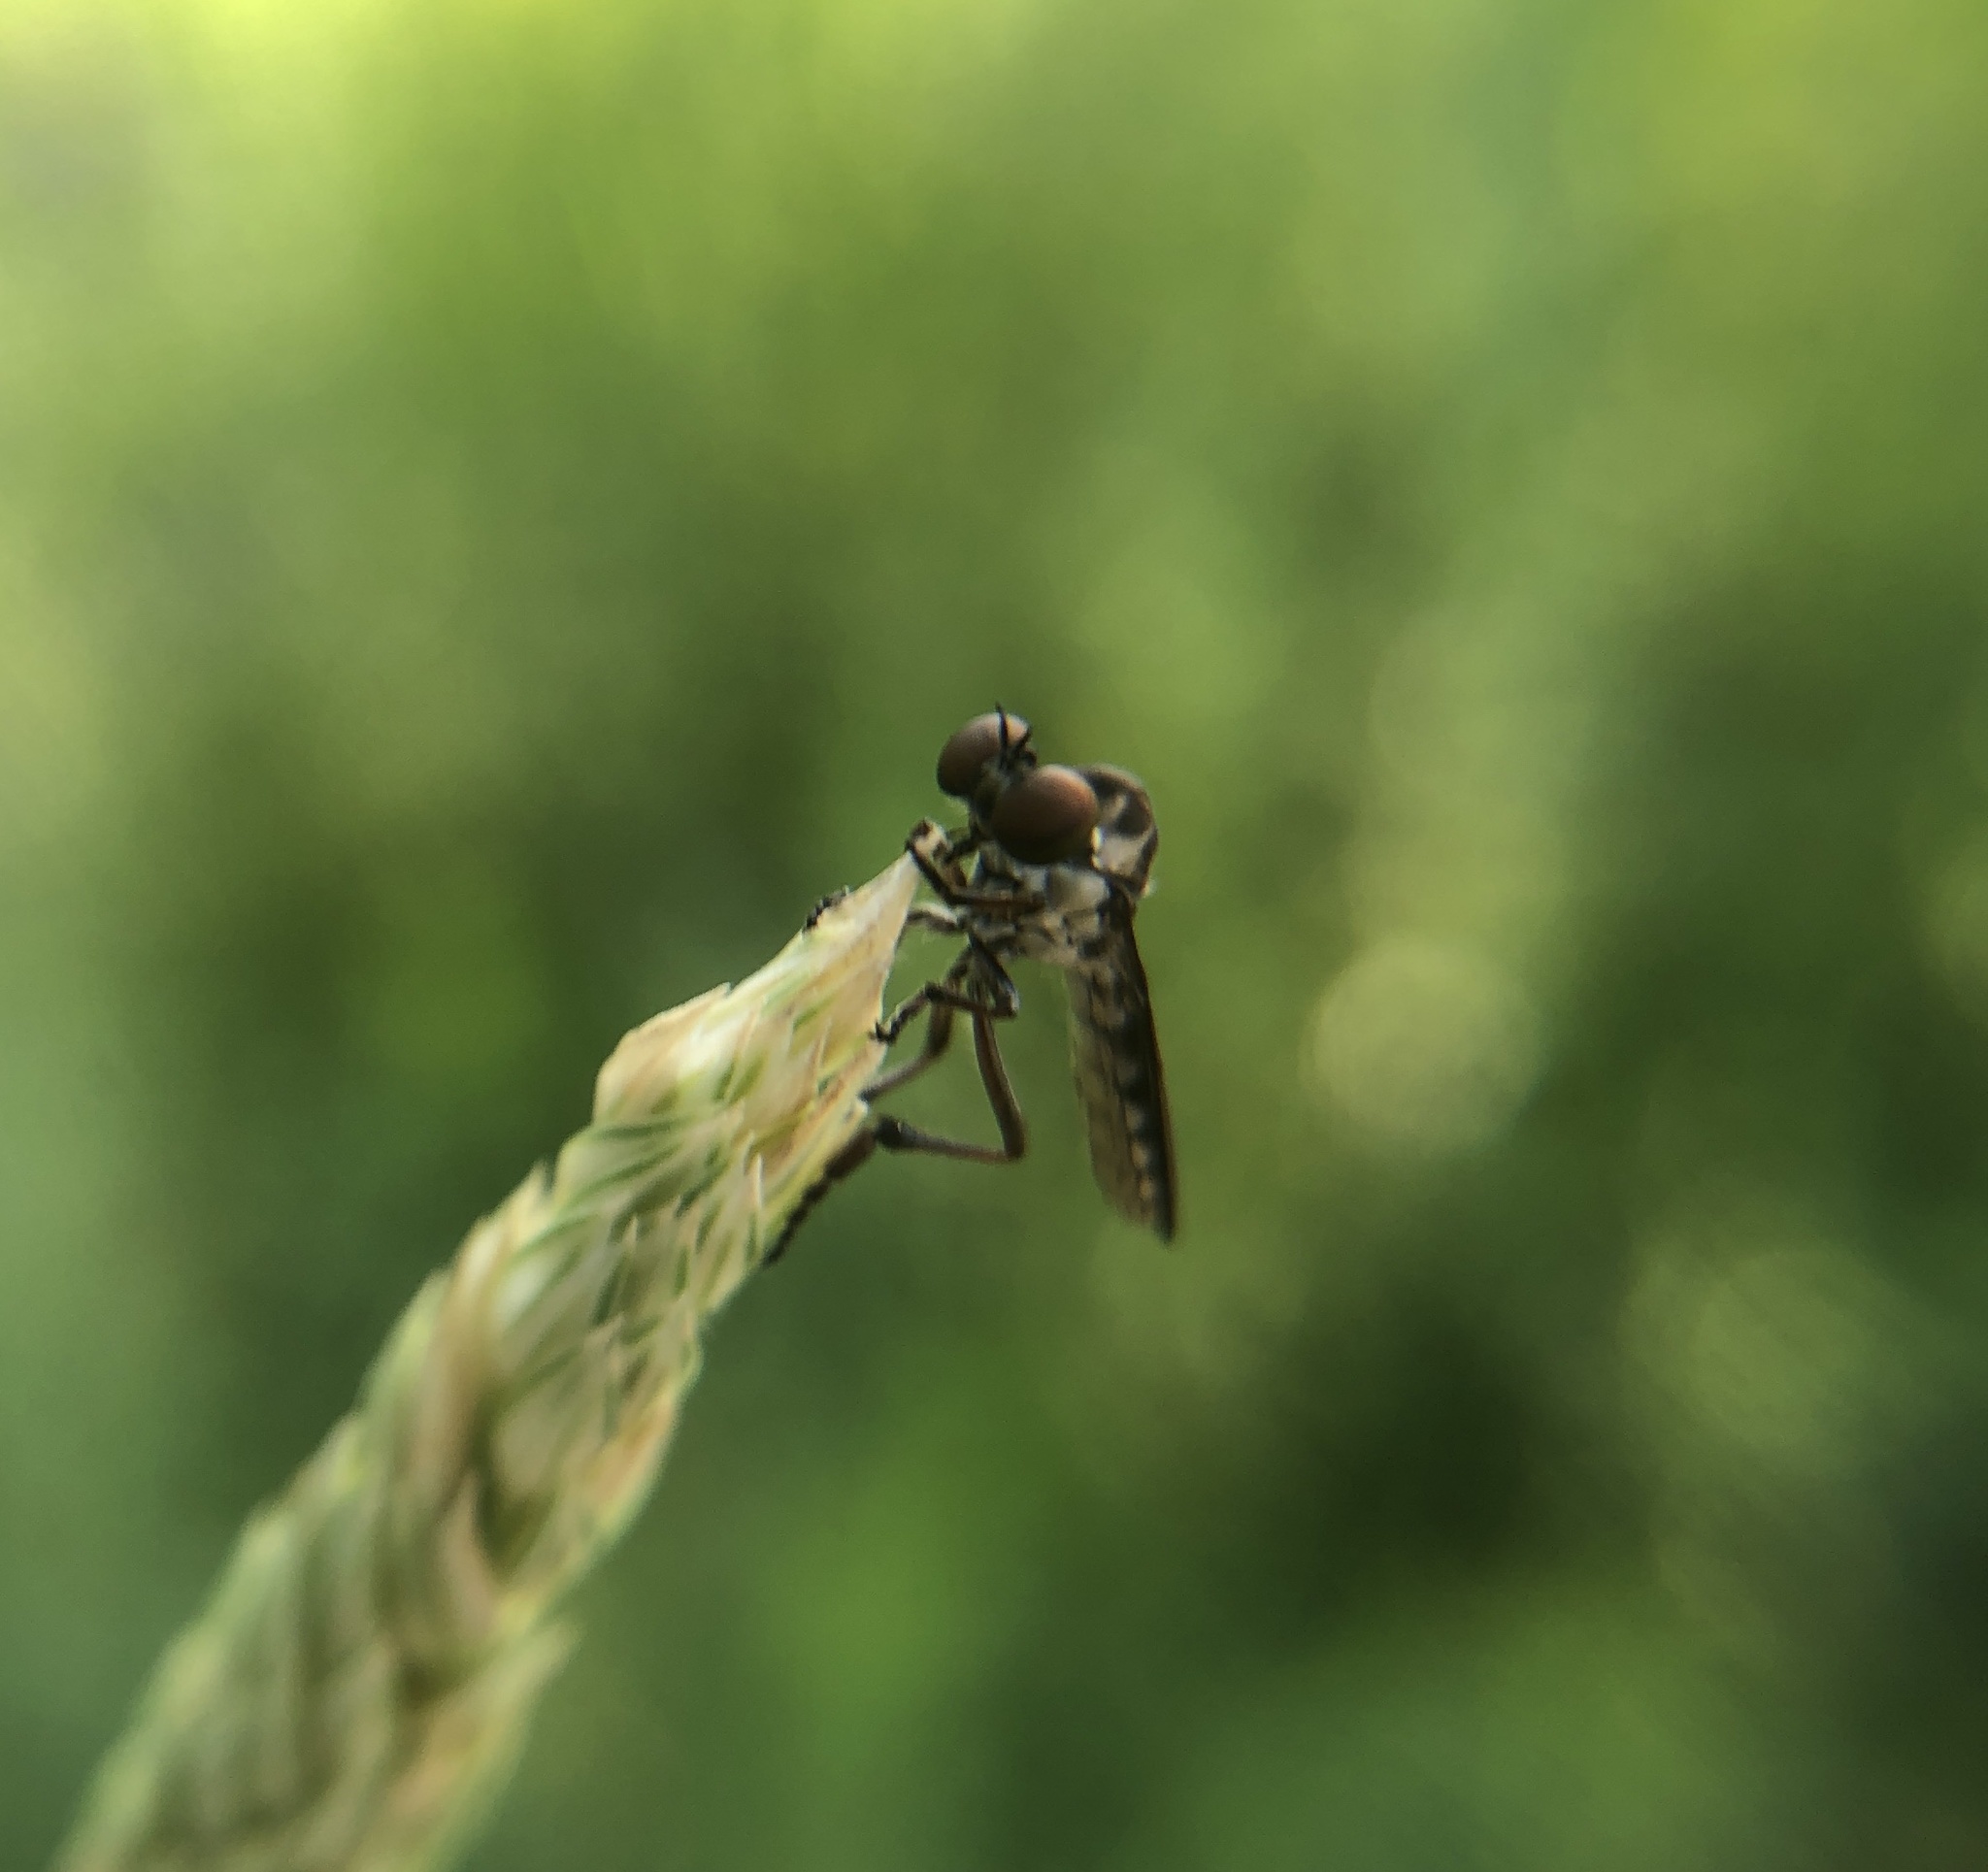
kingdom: Animalia
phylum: Arthropoda
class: Insecta
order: Diptera
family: Asilidae
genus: Holcocephala
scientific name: Holcocephala calva
